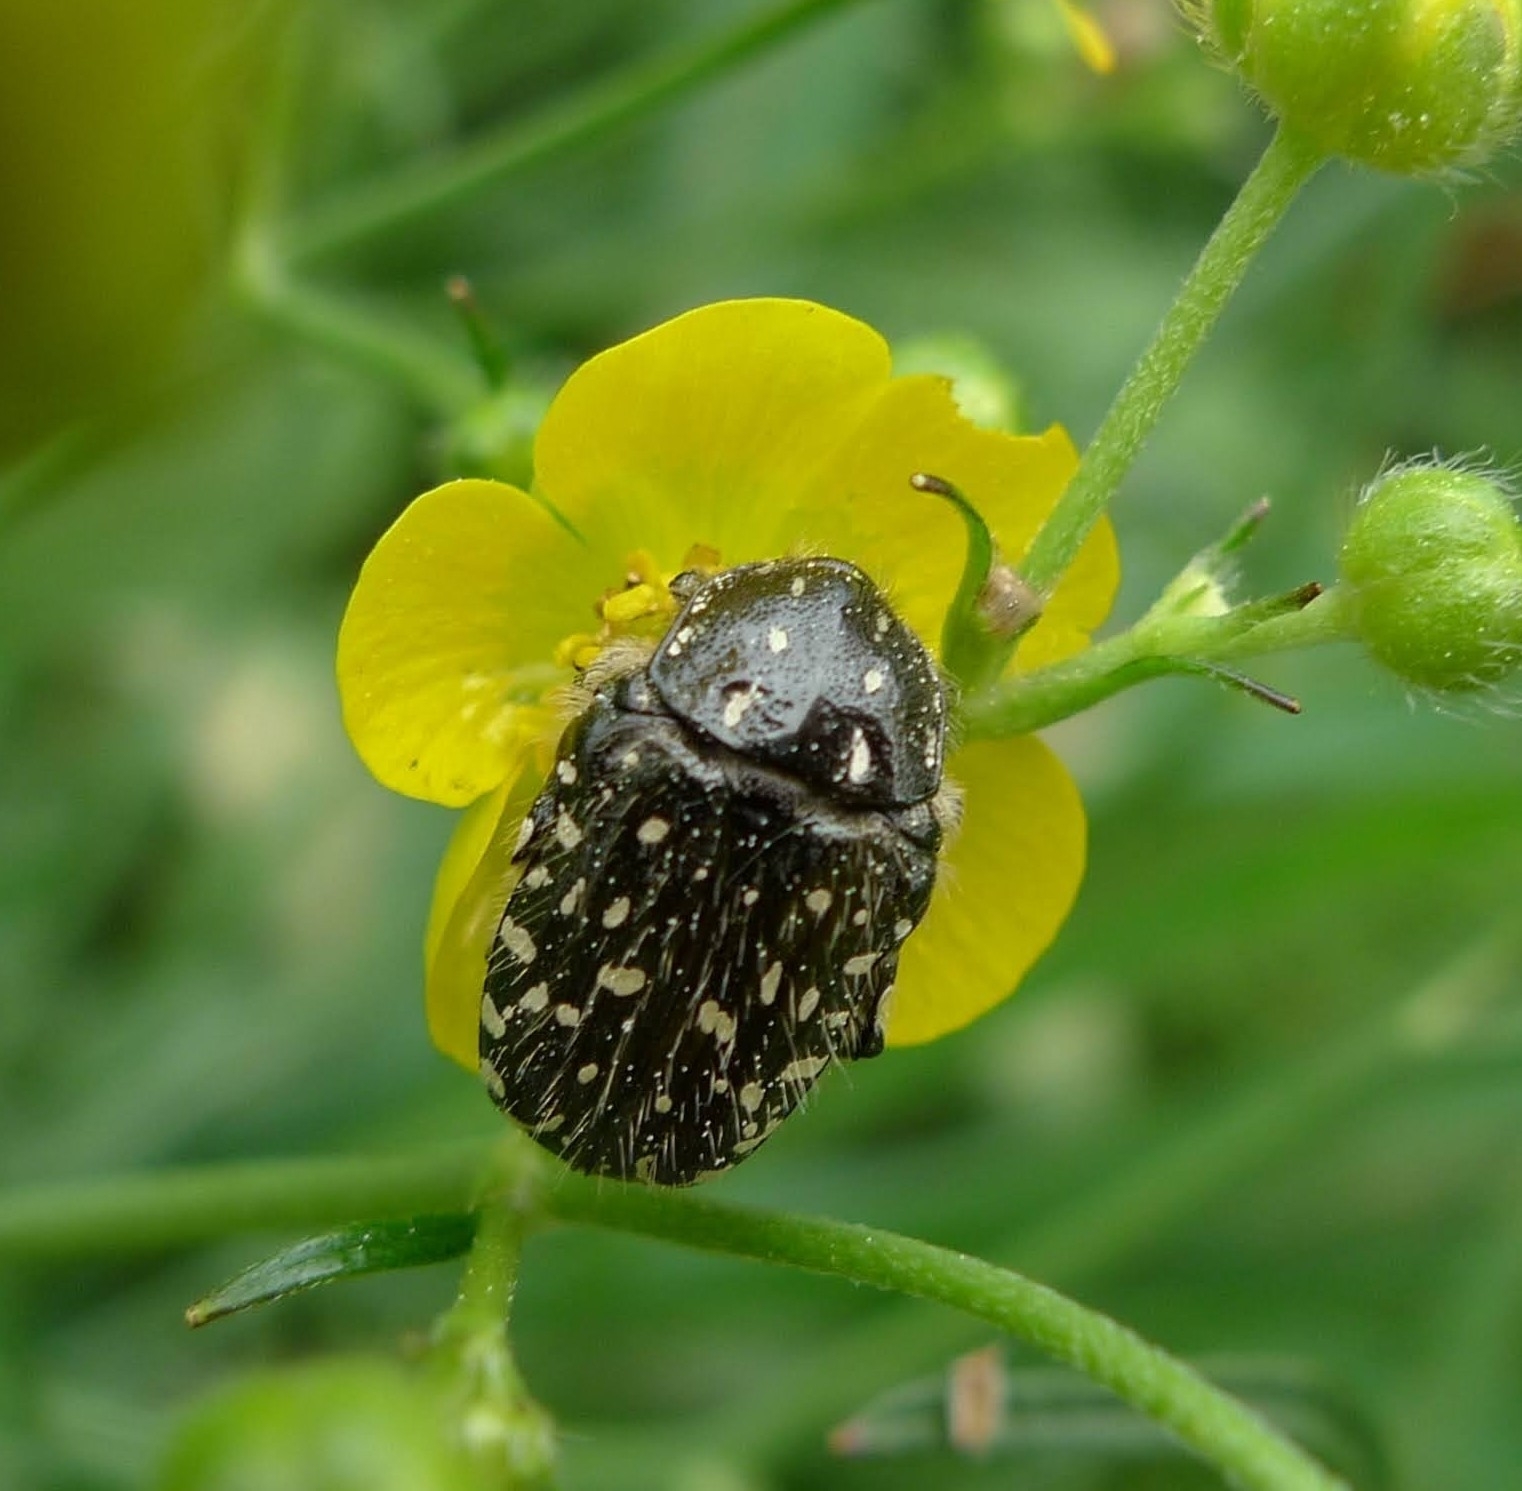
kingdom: Animalia
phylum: Arthropoda
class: Insecta
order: Coleoptera
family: Scarabaeidae
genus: Oxythyrea
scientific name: Oxythyrea funesta
